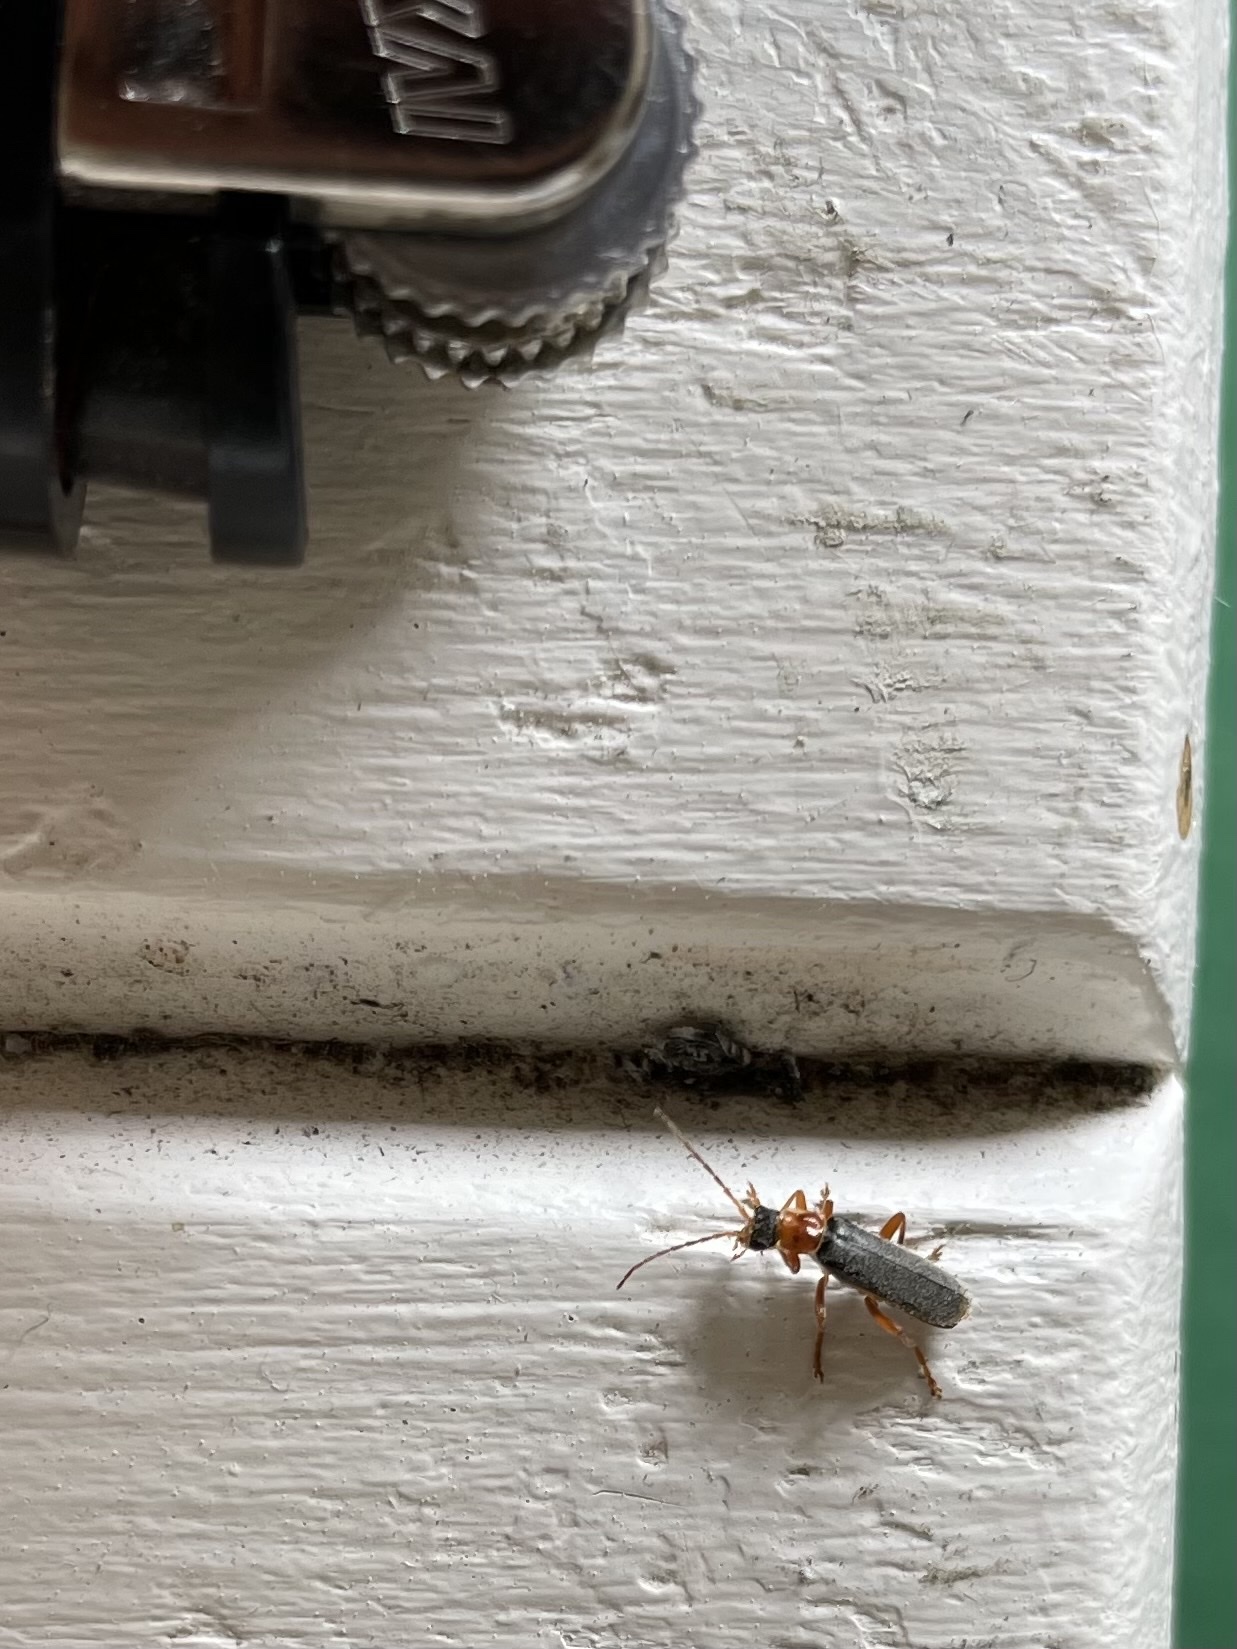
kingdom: Animalia
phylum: Arthropoda
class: Insecta
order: Coleoptera
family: Cantharidae
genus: Cantharis
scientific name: Cantharis lateralis
